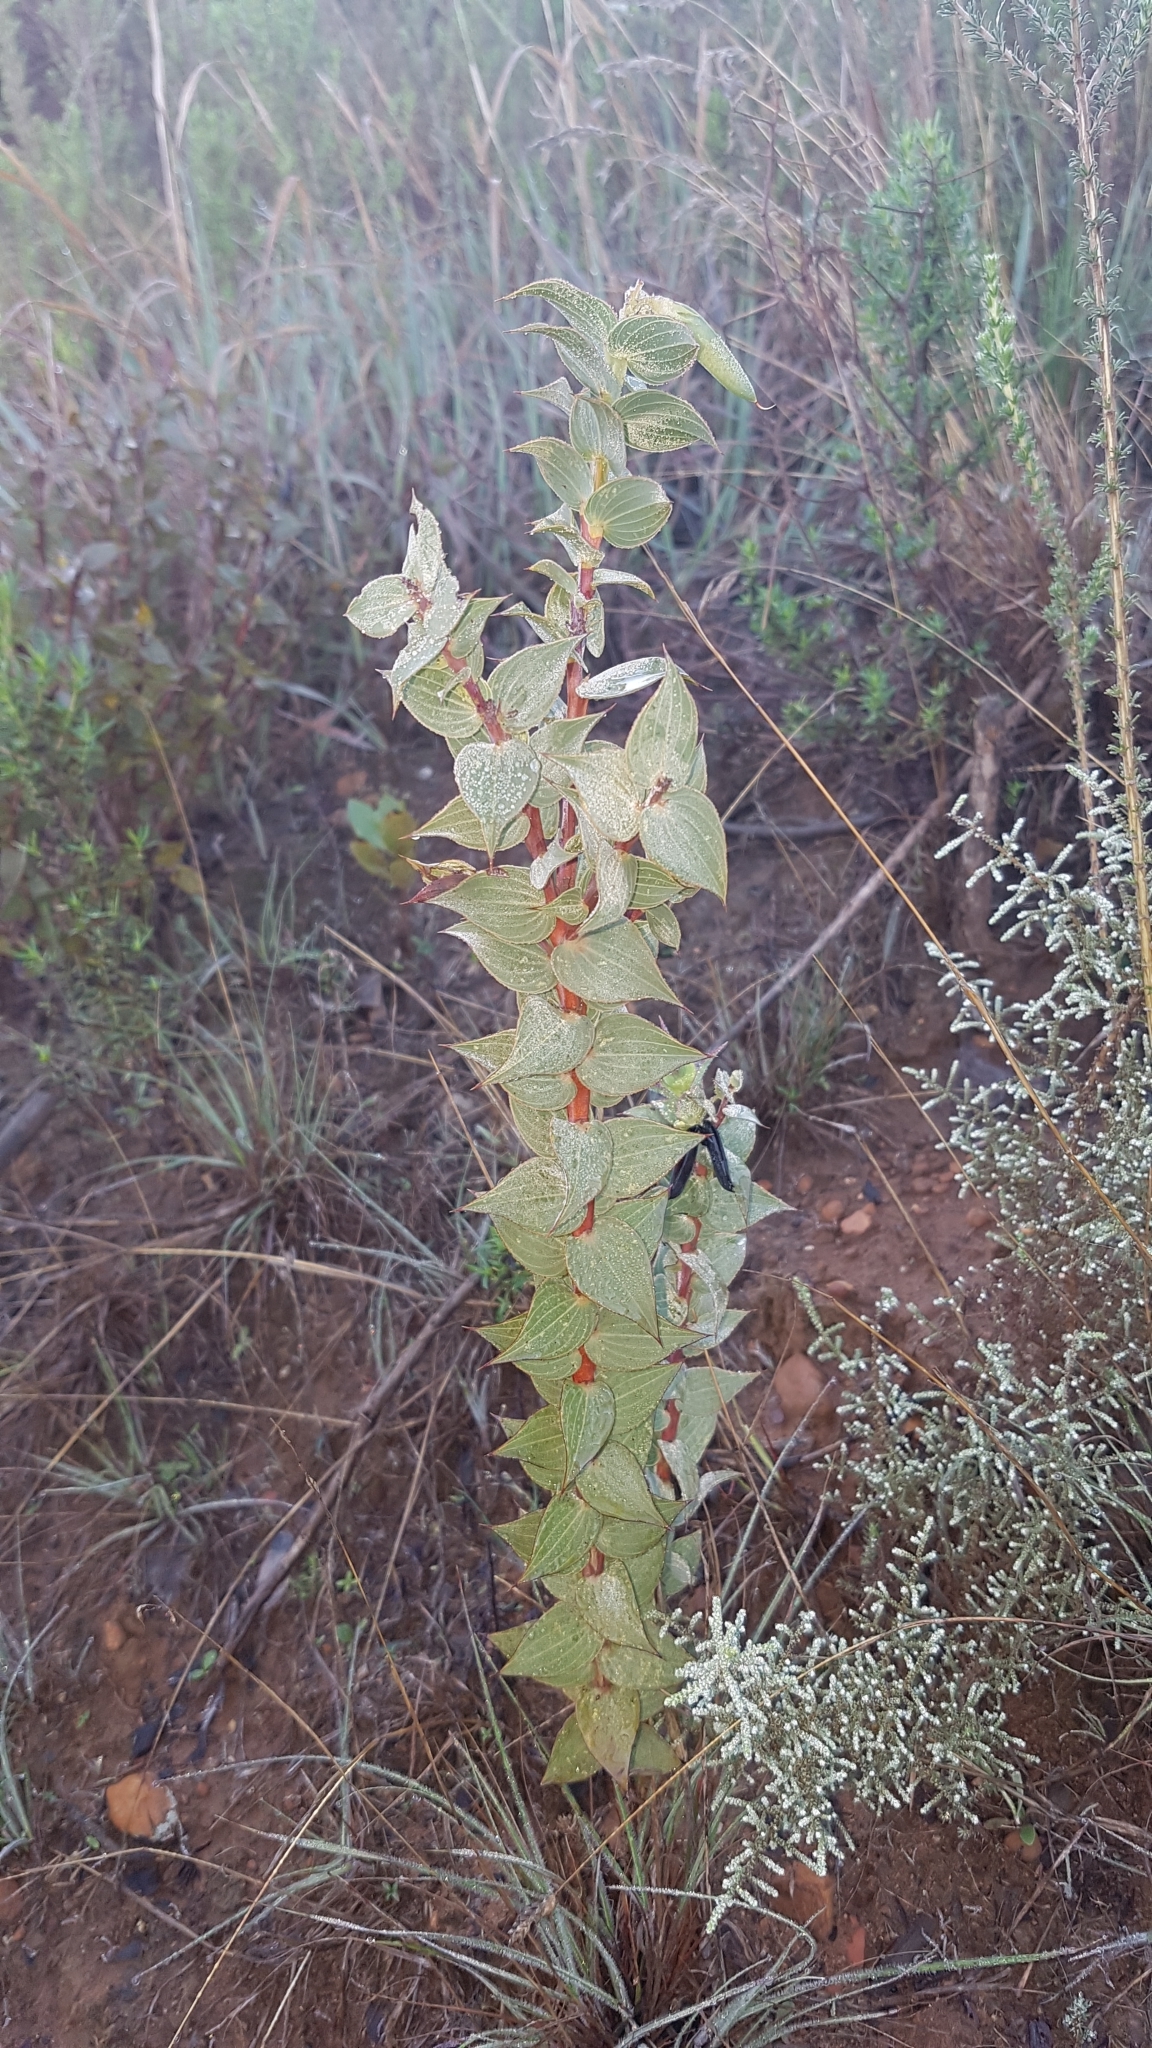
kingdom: Plantae
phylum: Tracheophyta
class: Magnoliopsida
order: Fabales
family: Fabaceae
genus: Aspalathus
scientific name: Aspalathus crenata
